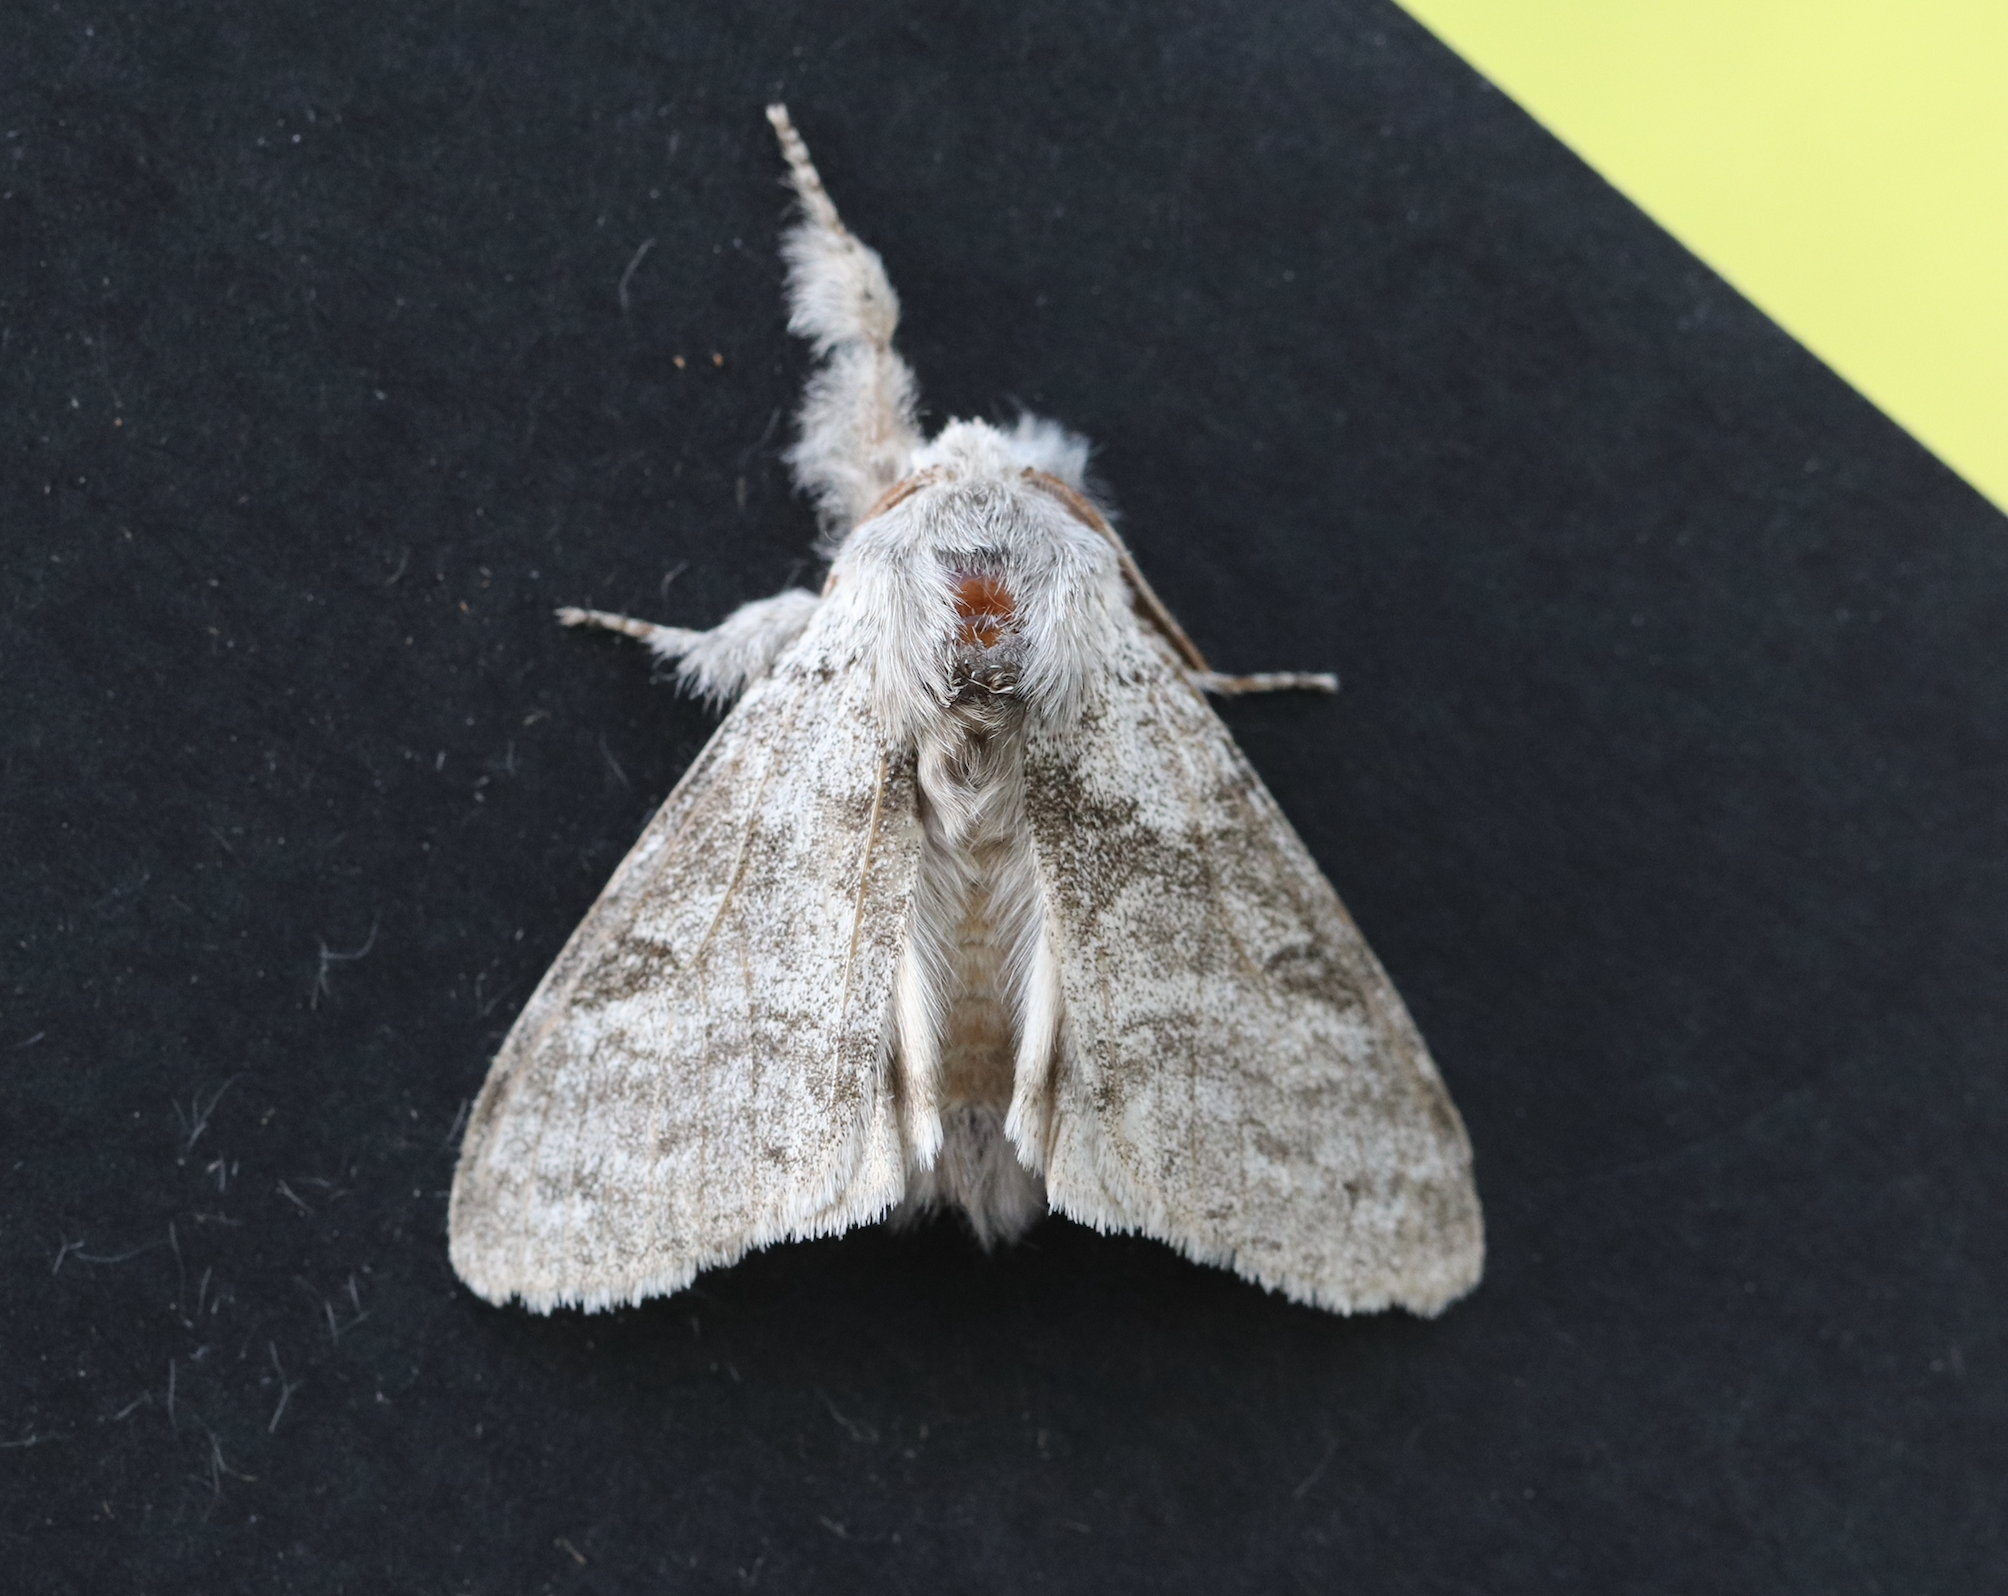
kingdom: Animalia
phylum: Arthropoda
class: Insecta
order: Lepidoptera
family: Erebidae
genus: Calliteara
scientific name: Calliteara pudibunda
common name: Pale tussock
